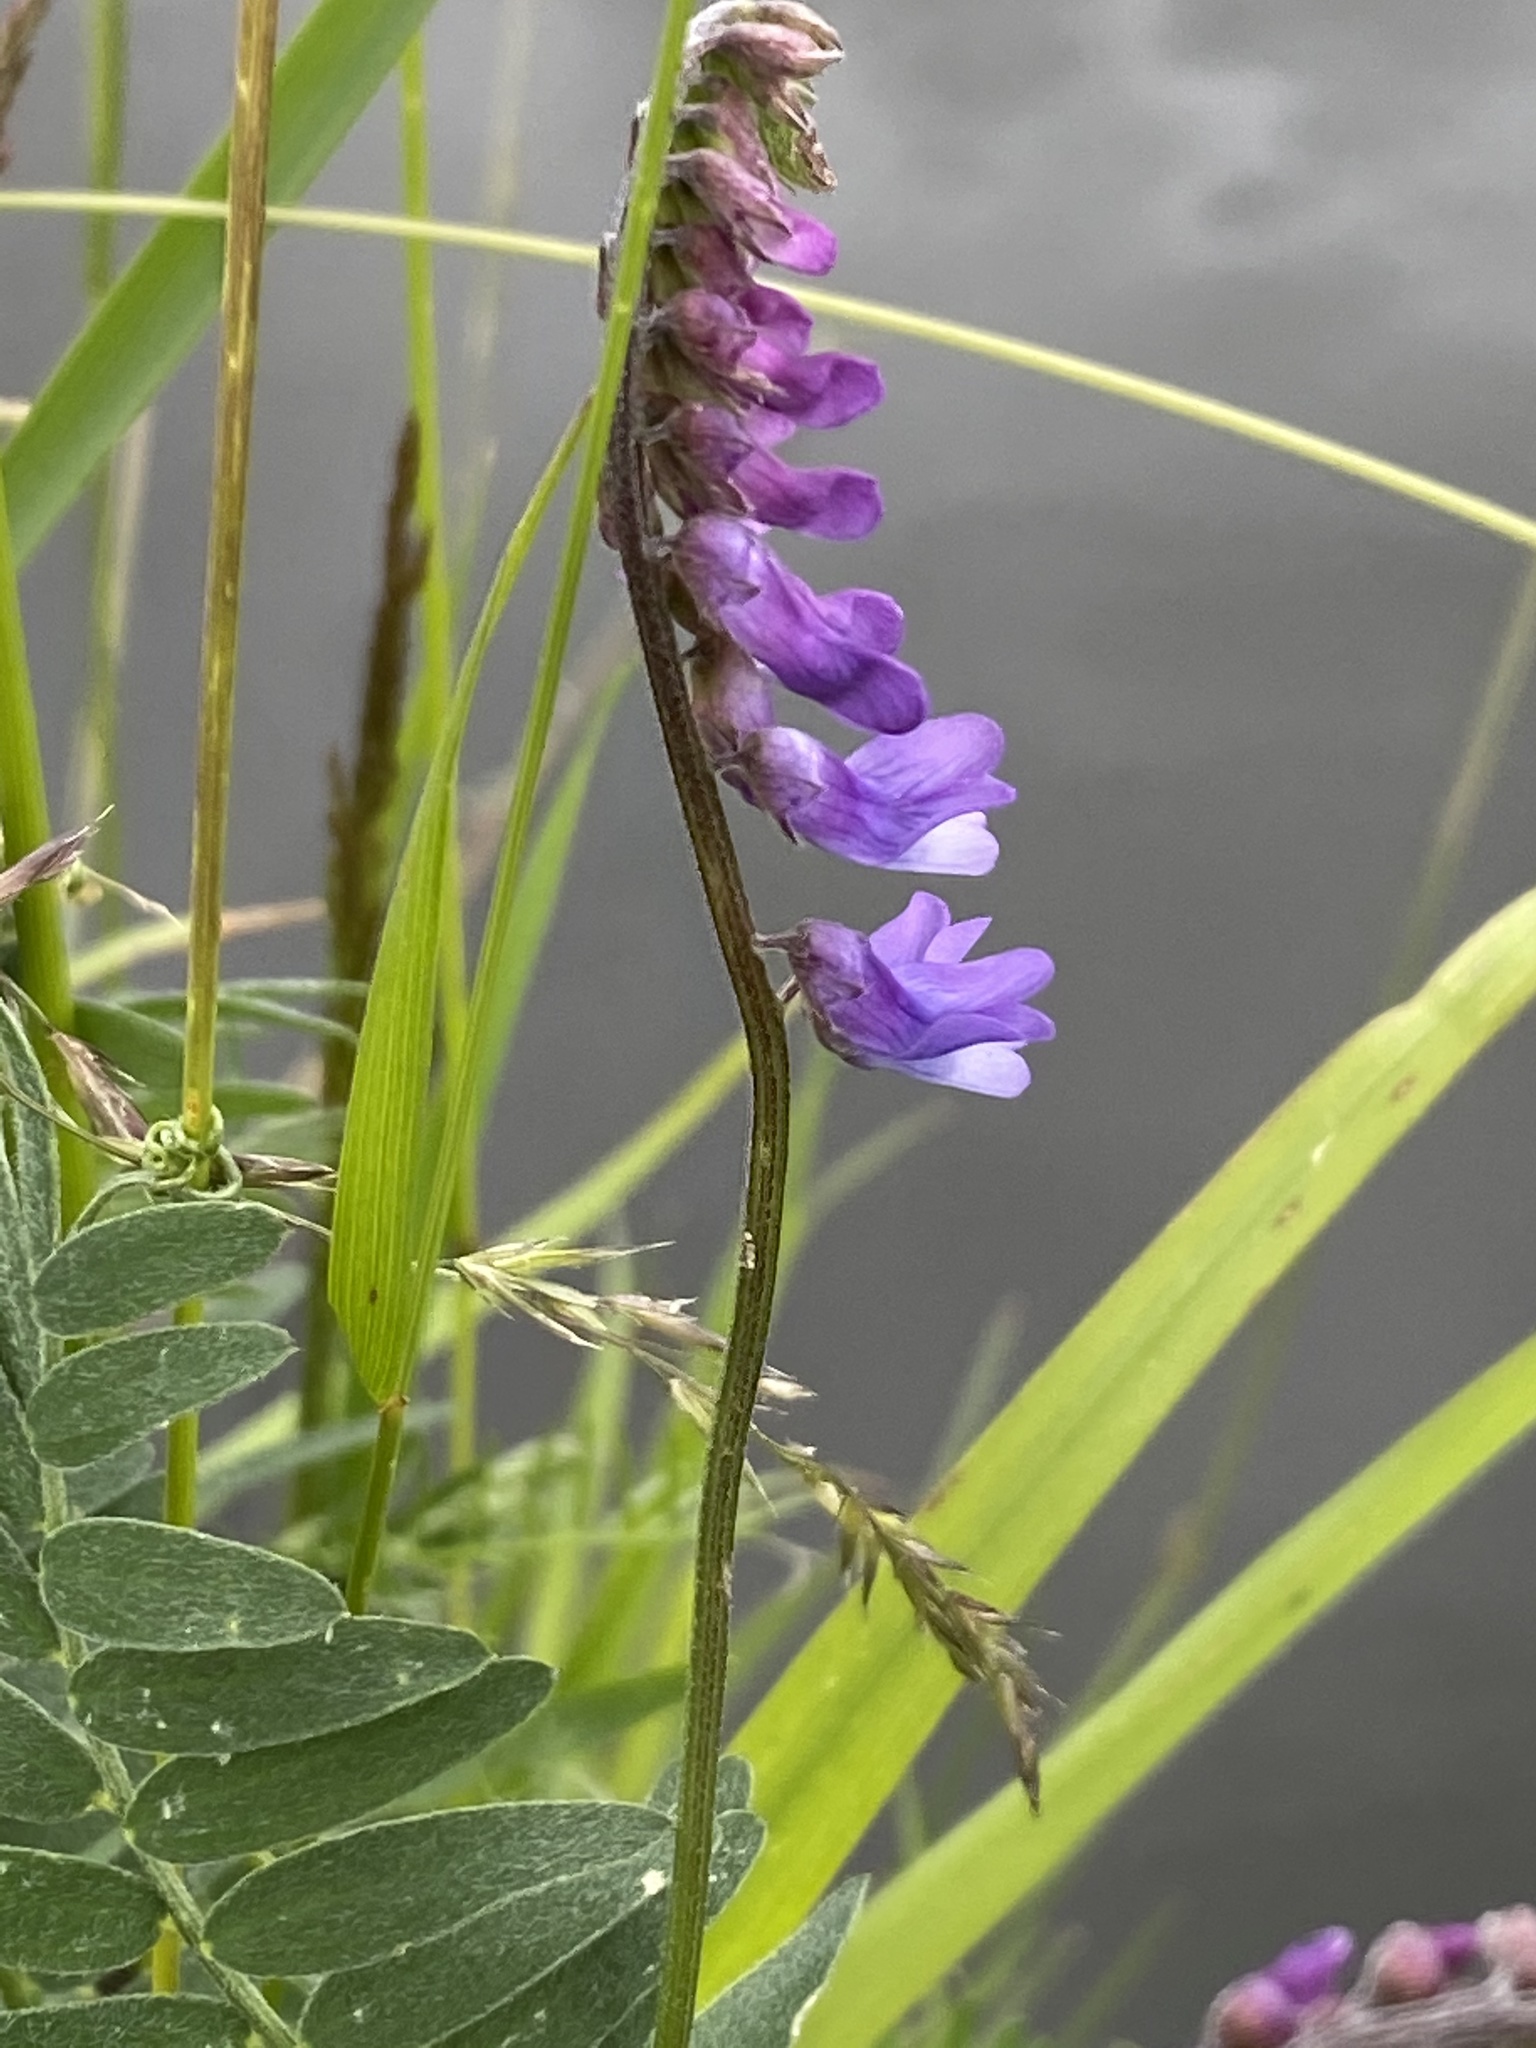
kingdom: Plantae
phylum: Tracheophyta
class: Magnoliopsida
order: Fabales
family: Fabaceae
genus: Vicia
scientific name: Vicia cracca
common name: Bird vetch
